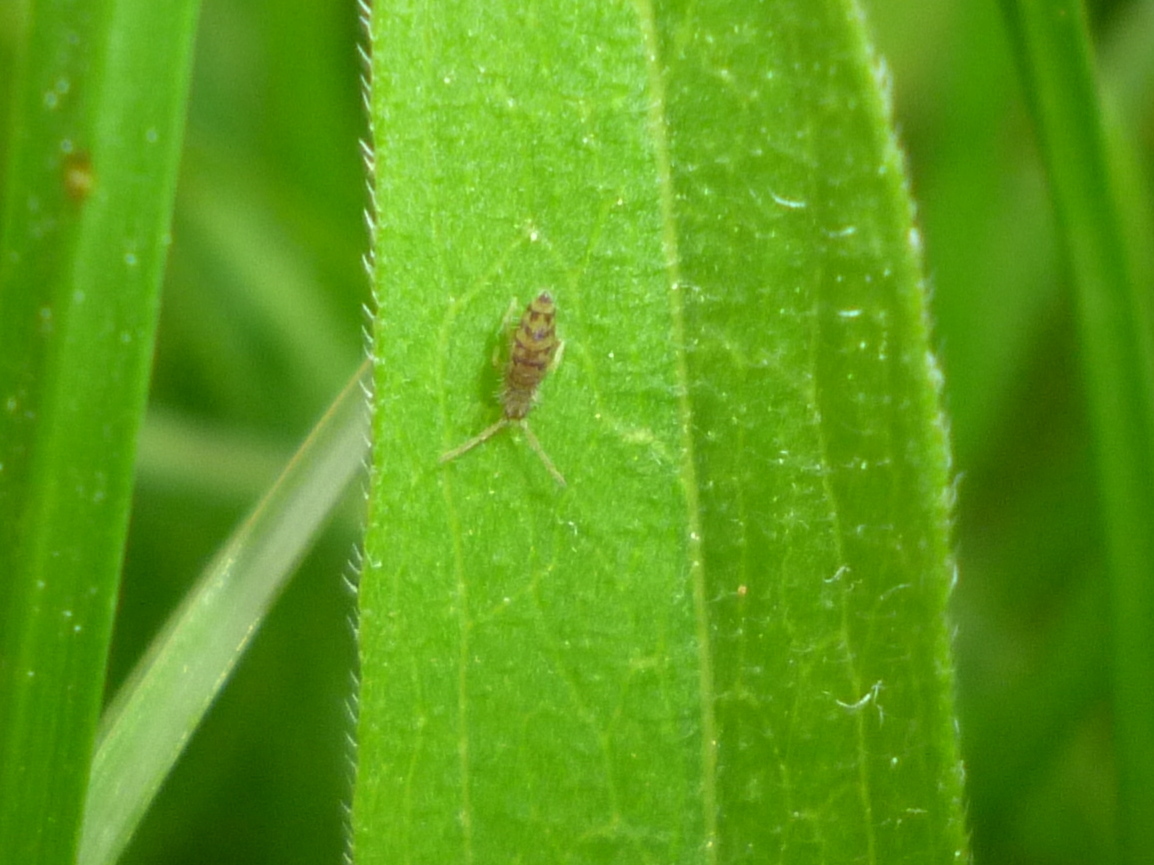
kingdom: Animalia
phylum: Arthropoda
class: Collembola
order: Entomobryomorpha
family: Entomobryidae
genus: Entomobrya
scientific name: Entomobrya multifasciata
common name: Springtail
